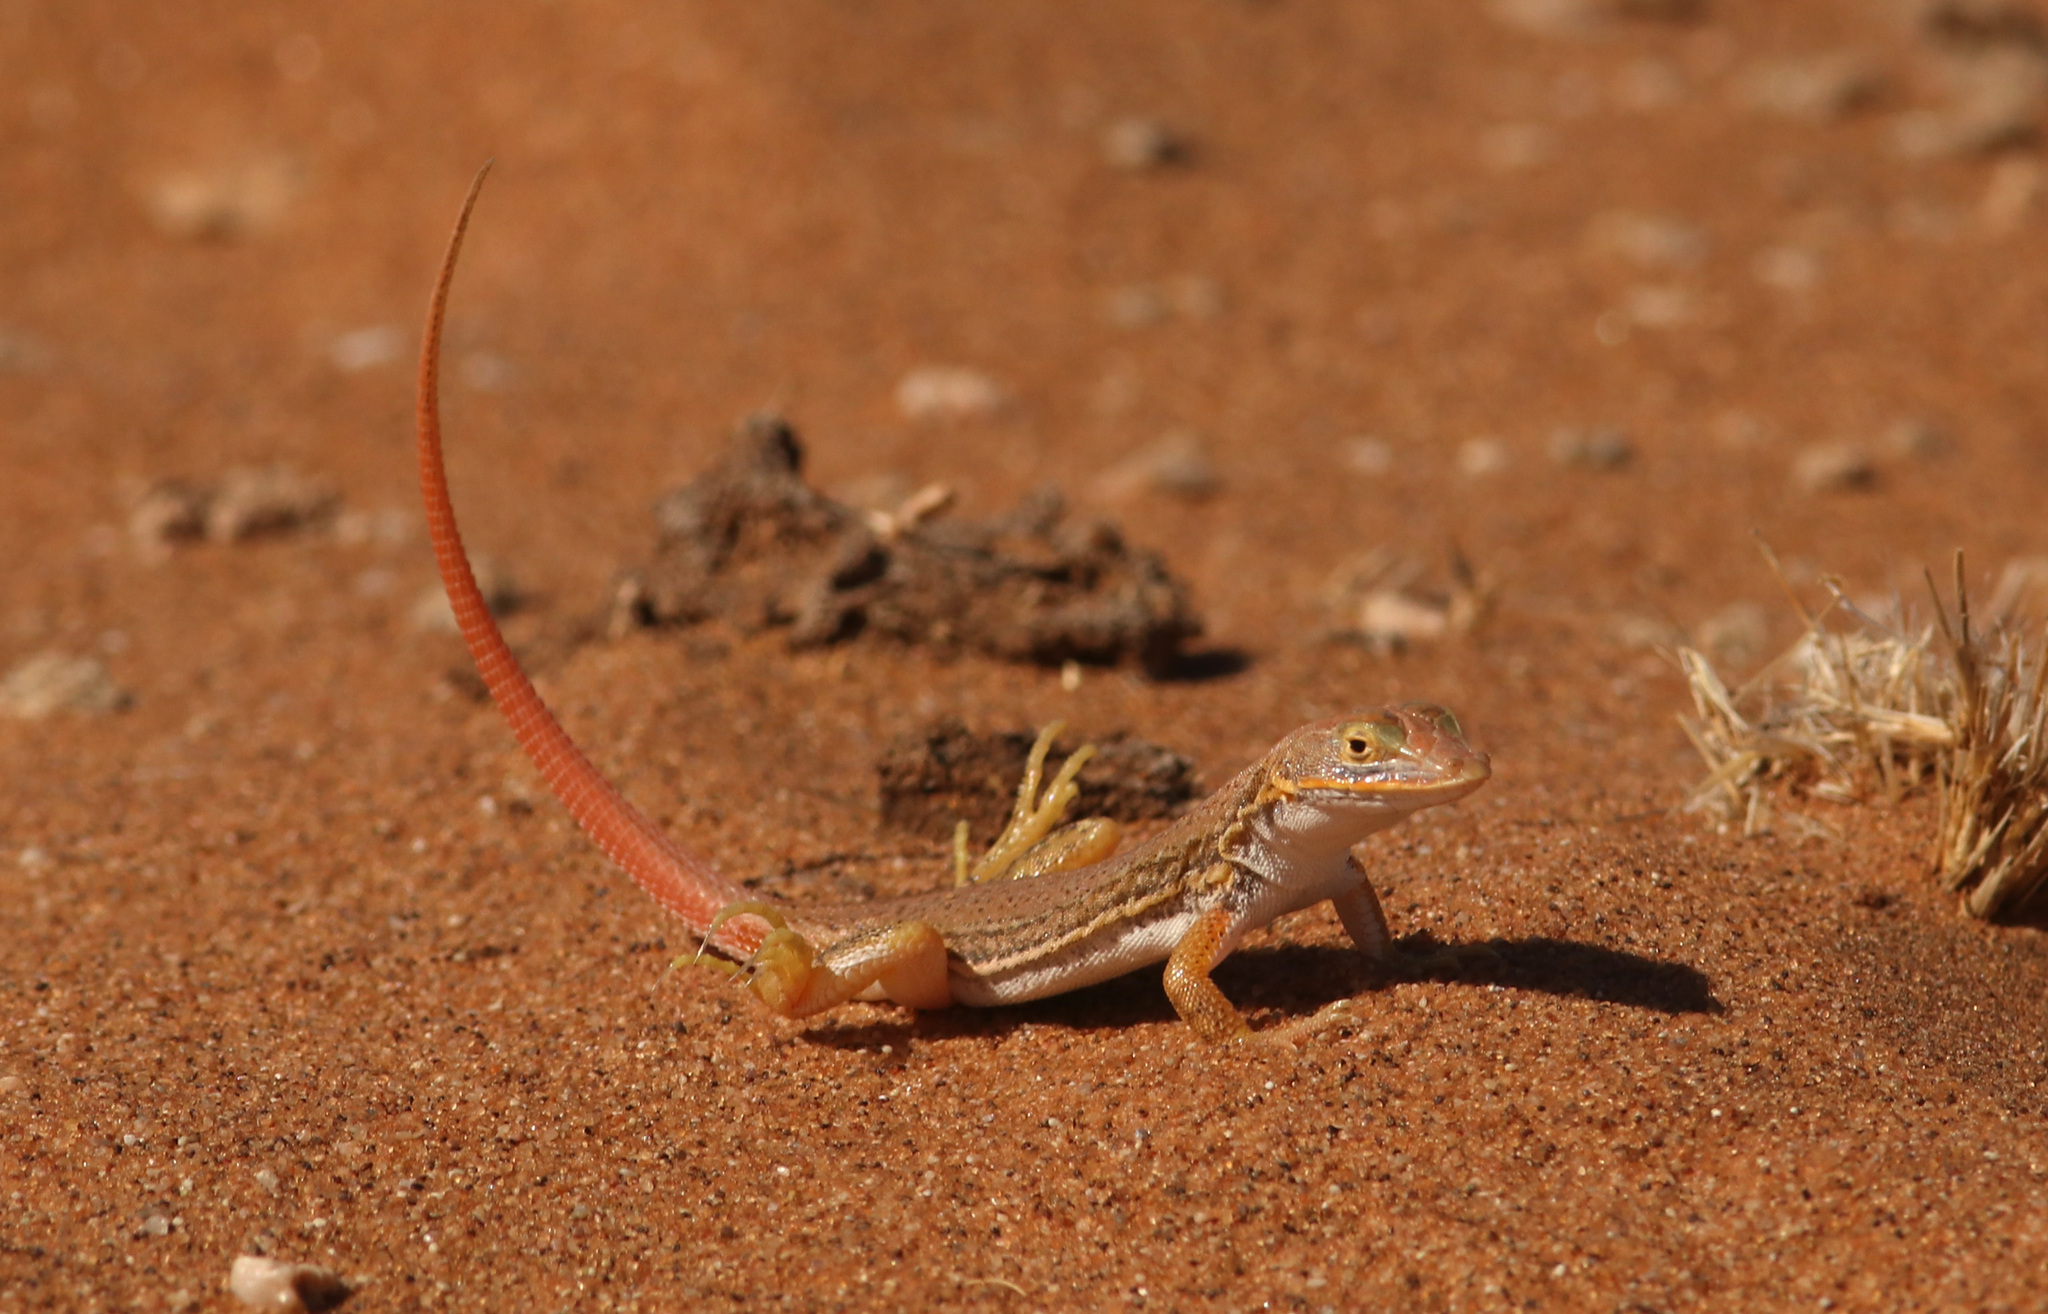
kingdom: Animalia
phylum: Chordata
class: Squamata
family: Lacertidae
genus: Meroles
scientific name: Meroles cuneirostris
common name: Wedge-snouted desert lizard
